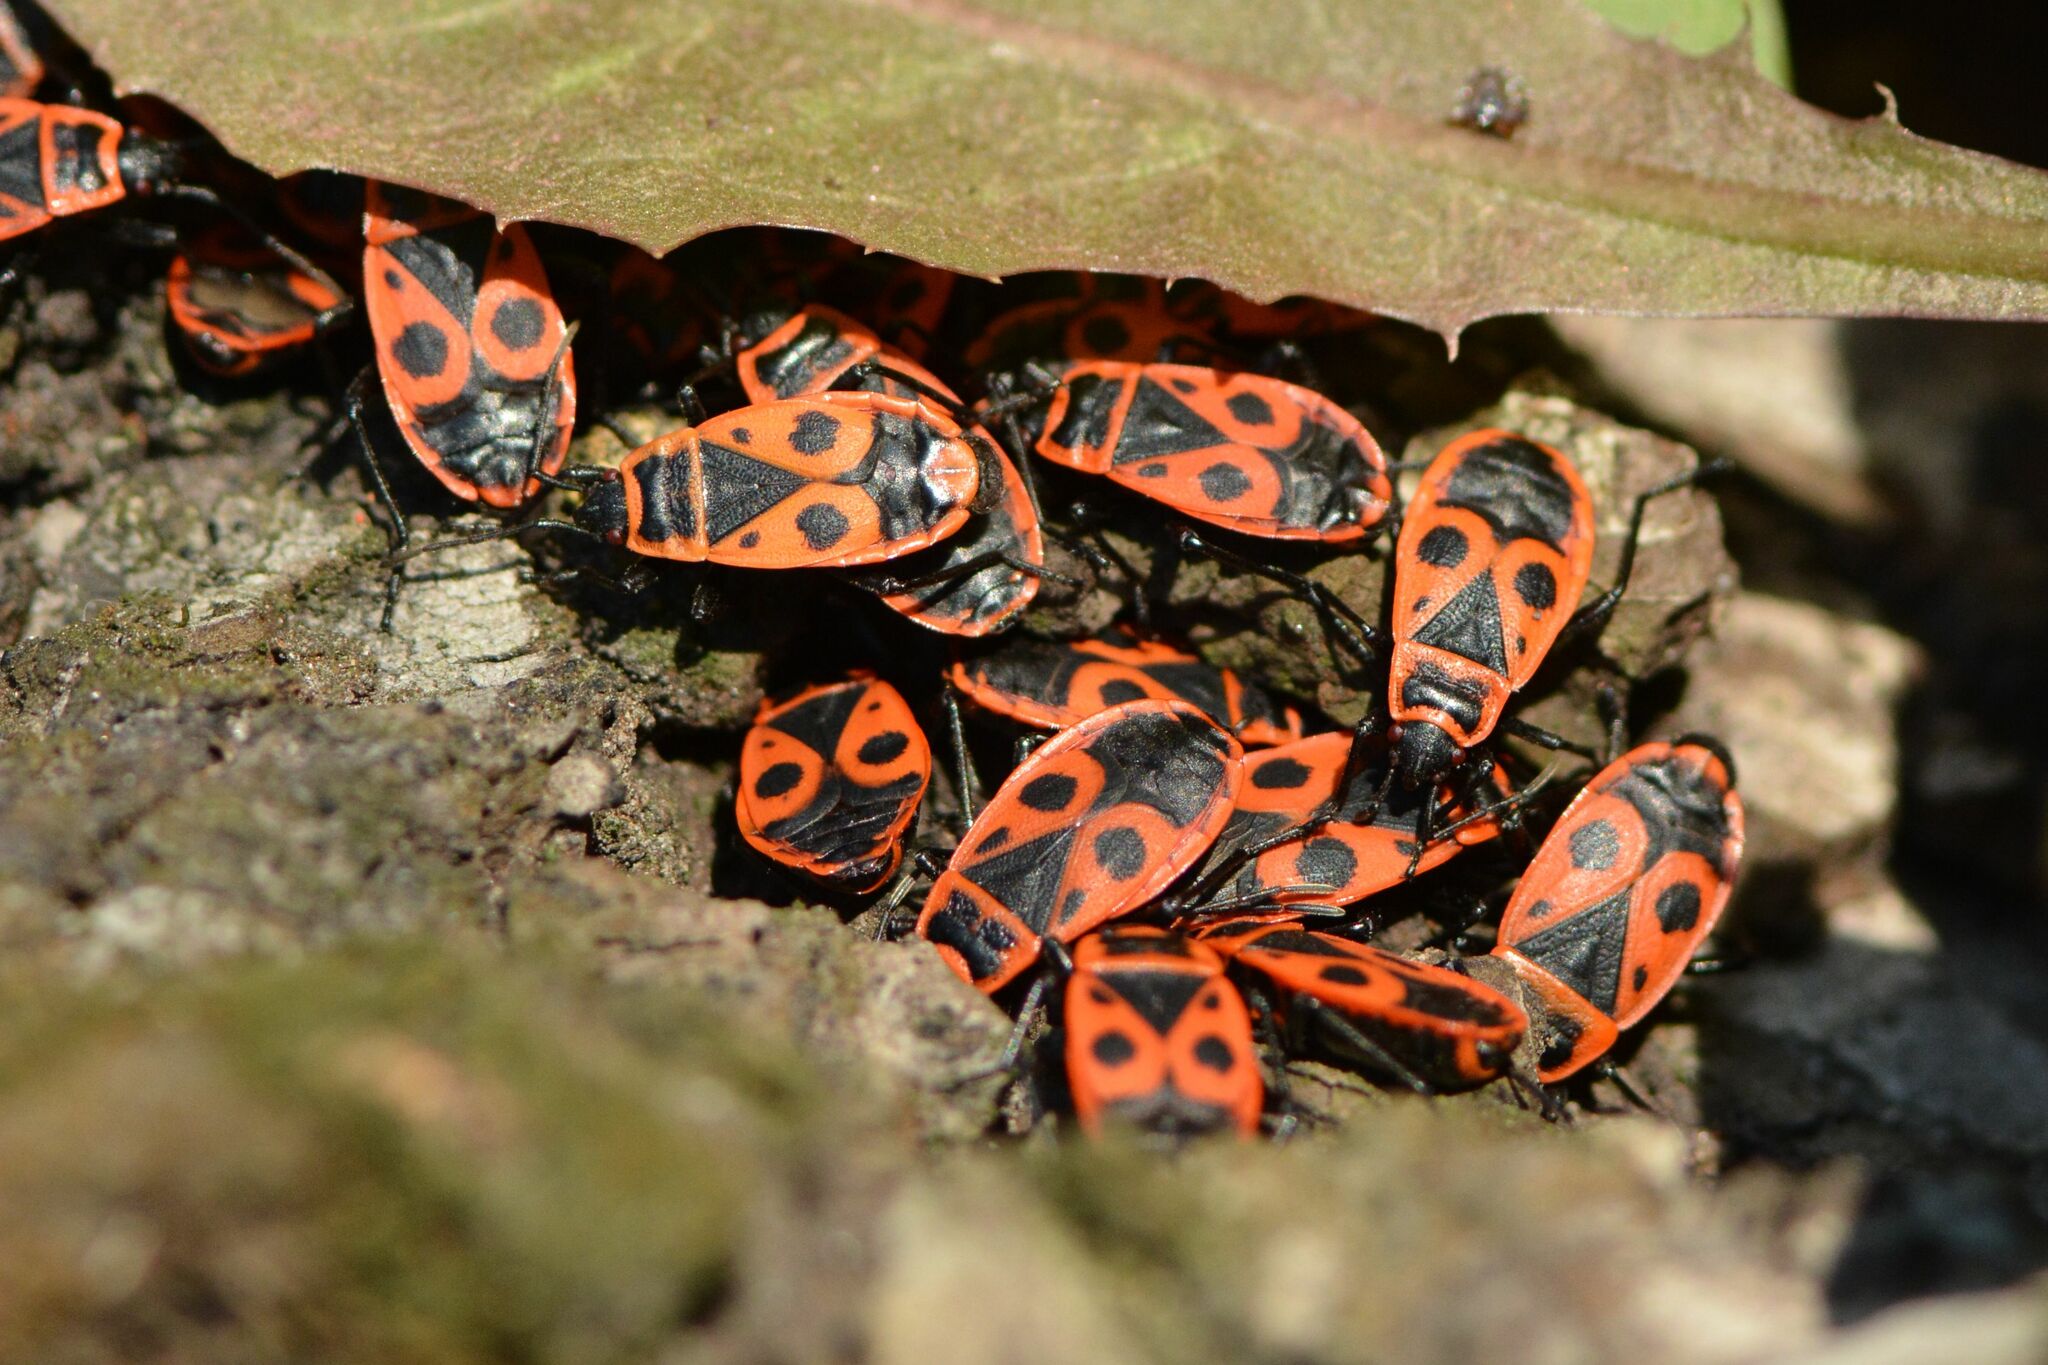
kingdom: Animalia
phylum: Arthropoda
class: Insecta
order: Hemiptera
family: Pyrrhocoridae
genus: Pyrrhocoris
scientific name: Pyrrhocoris apterus
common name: Firebug
